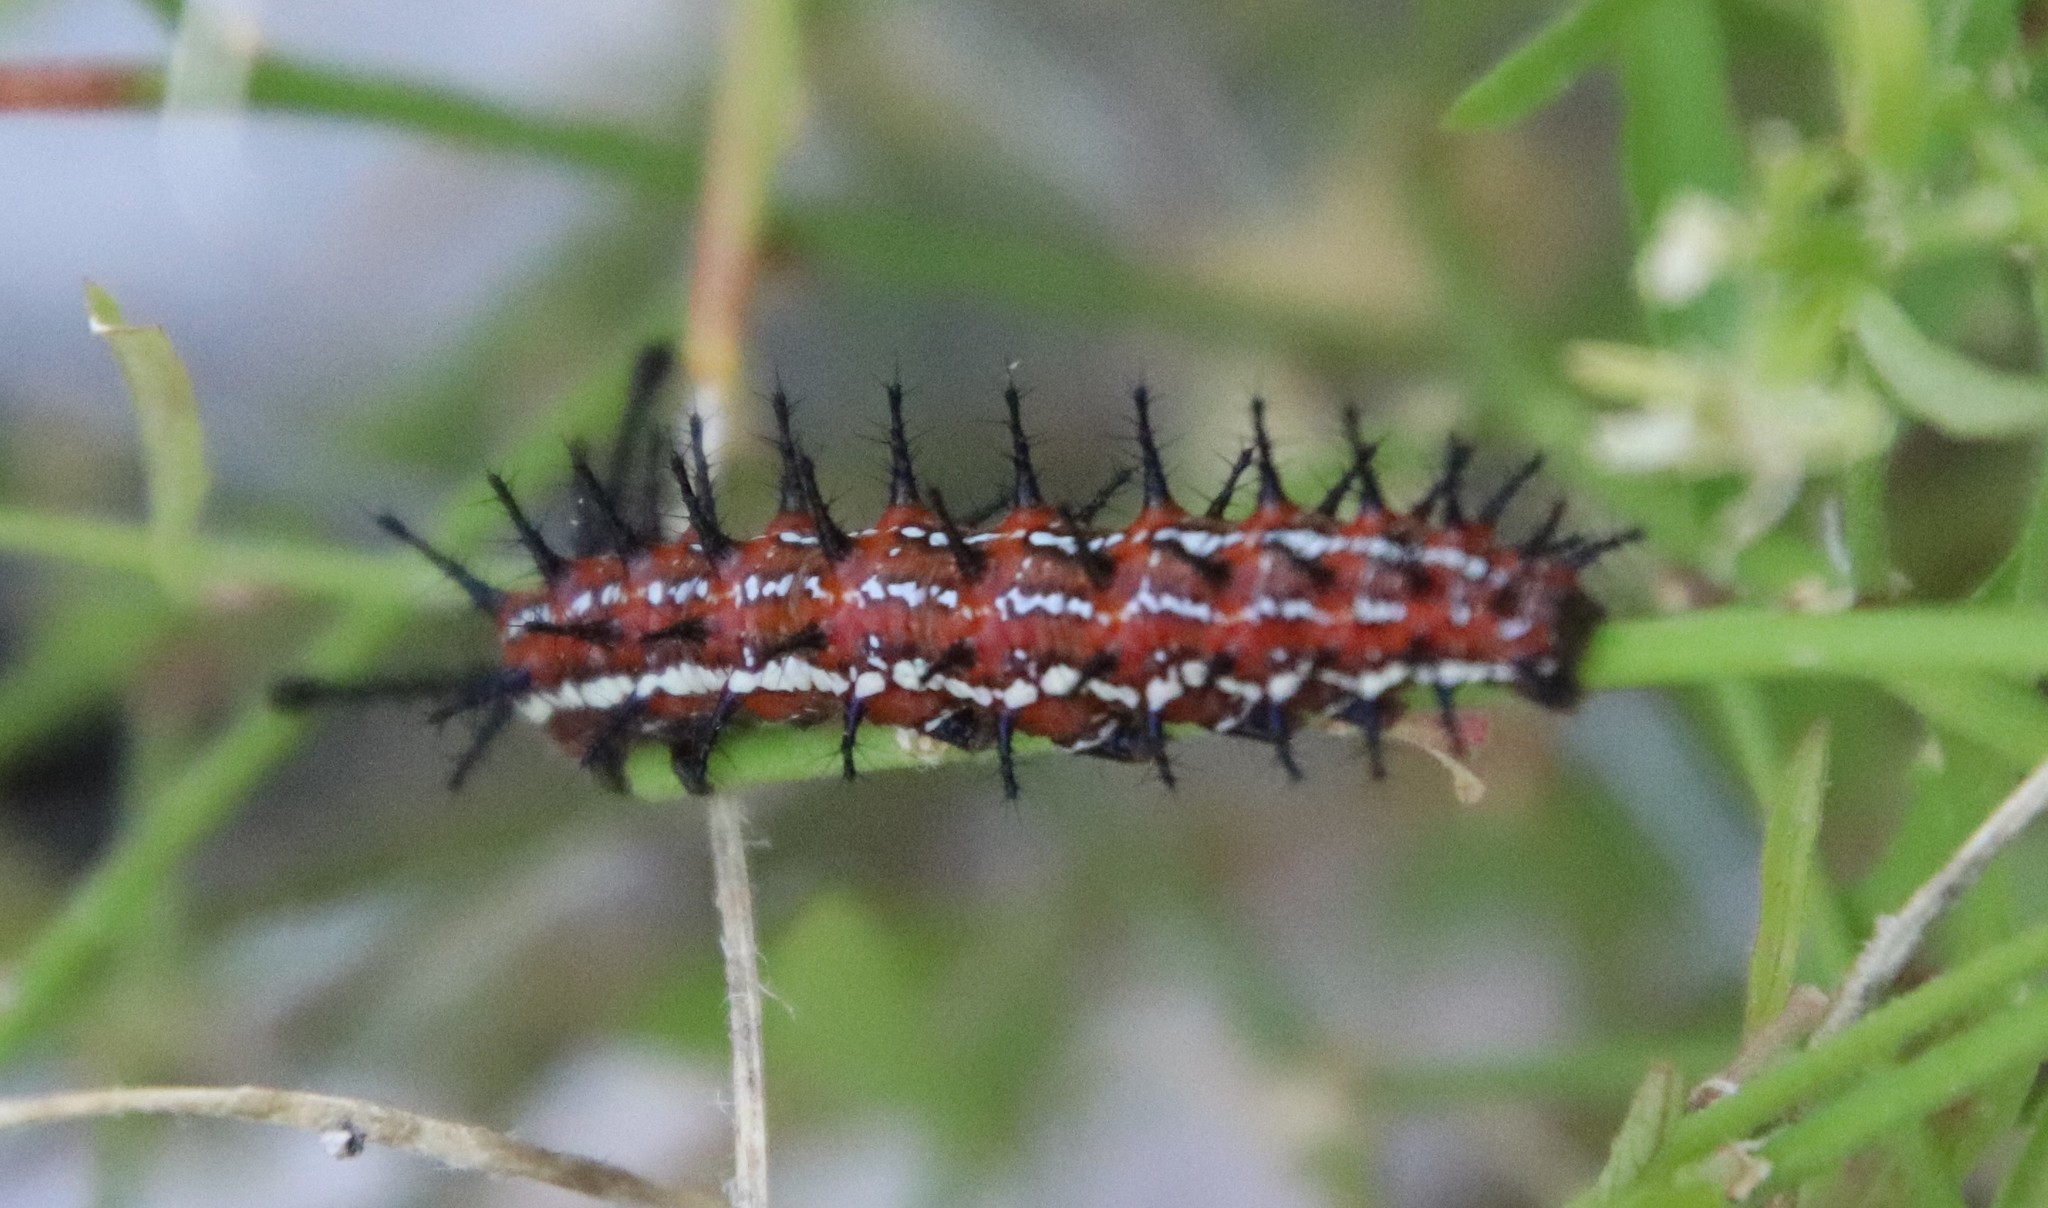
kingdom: Animalia
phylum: Arthropoda
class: Insecta
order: Lepidoptera
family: Nymphalidae
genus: Euptoieta
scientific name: Euptoieta hegesia
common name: Mexican fritillary
